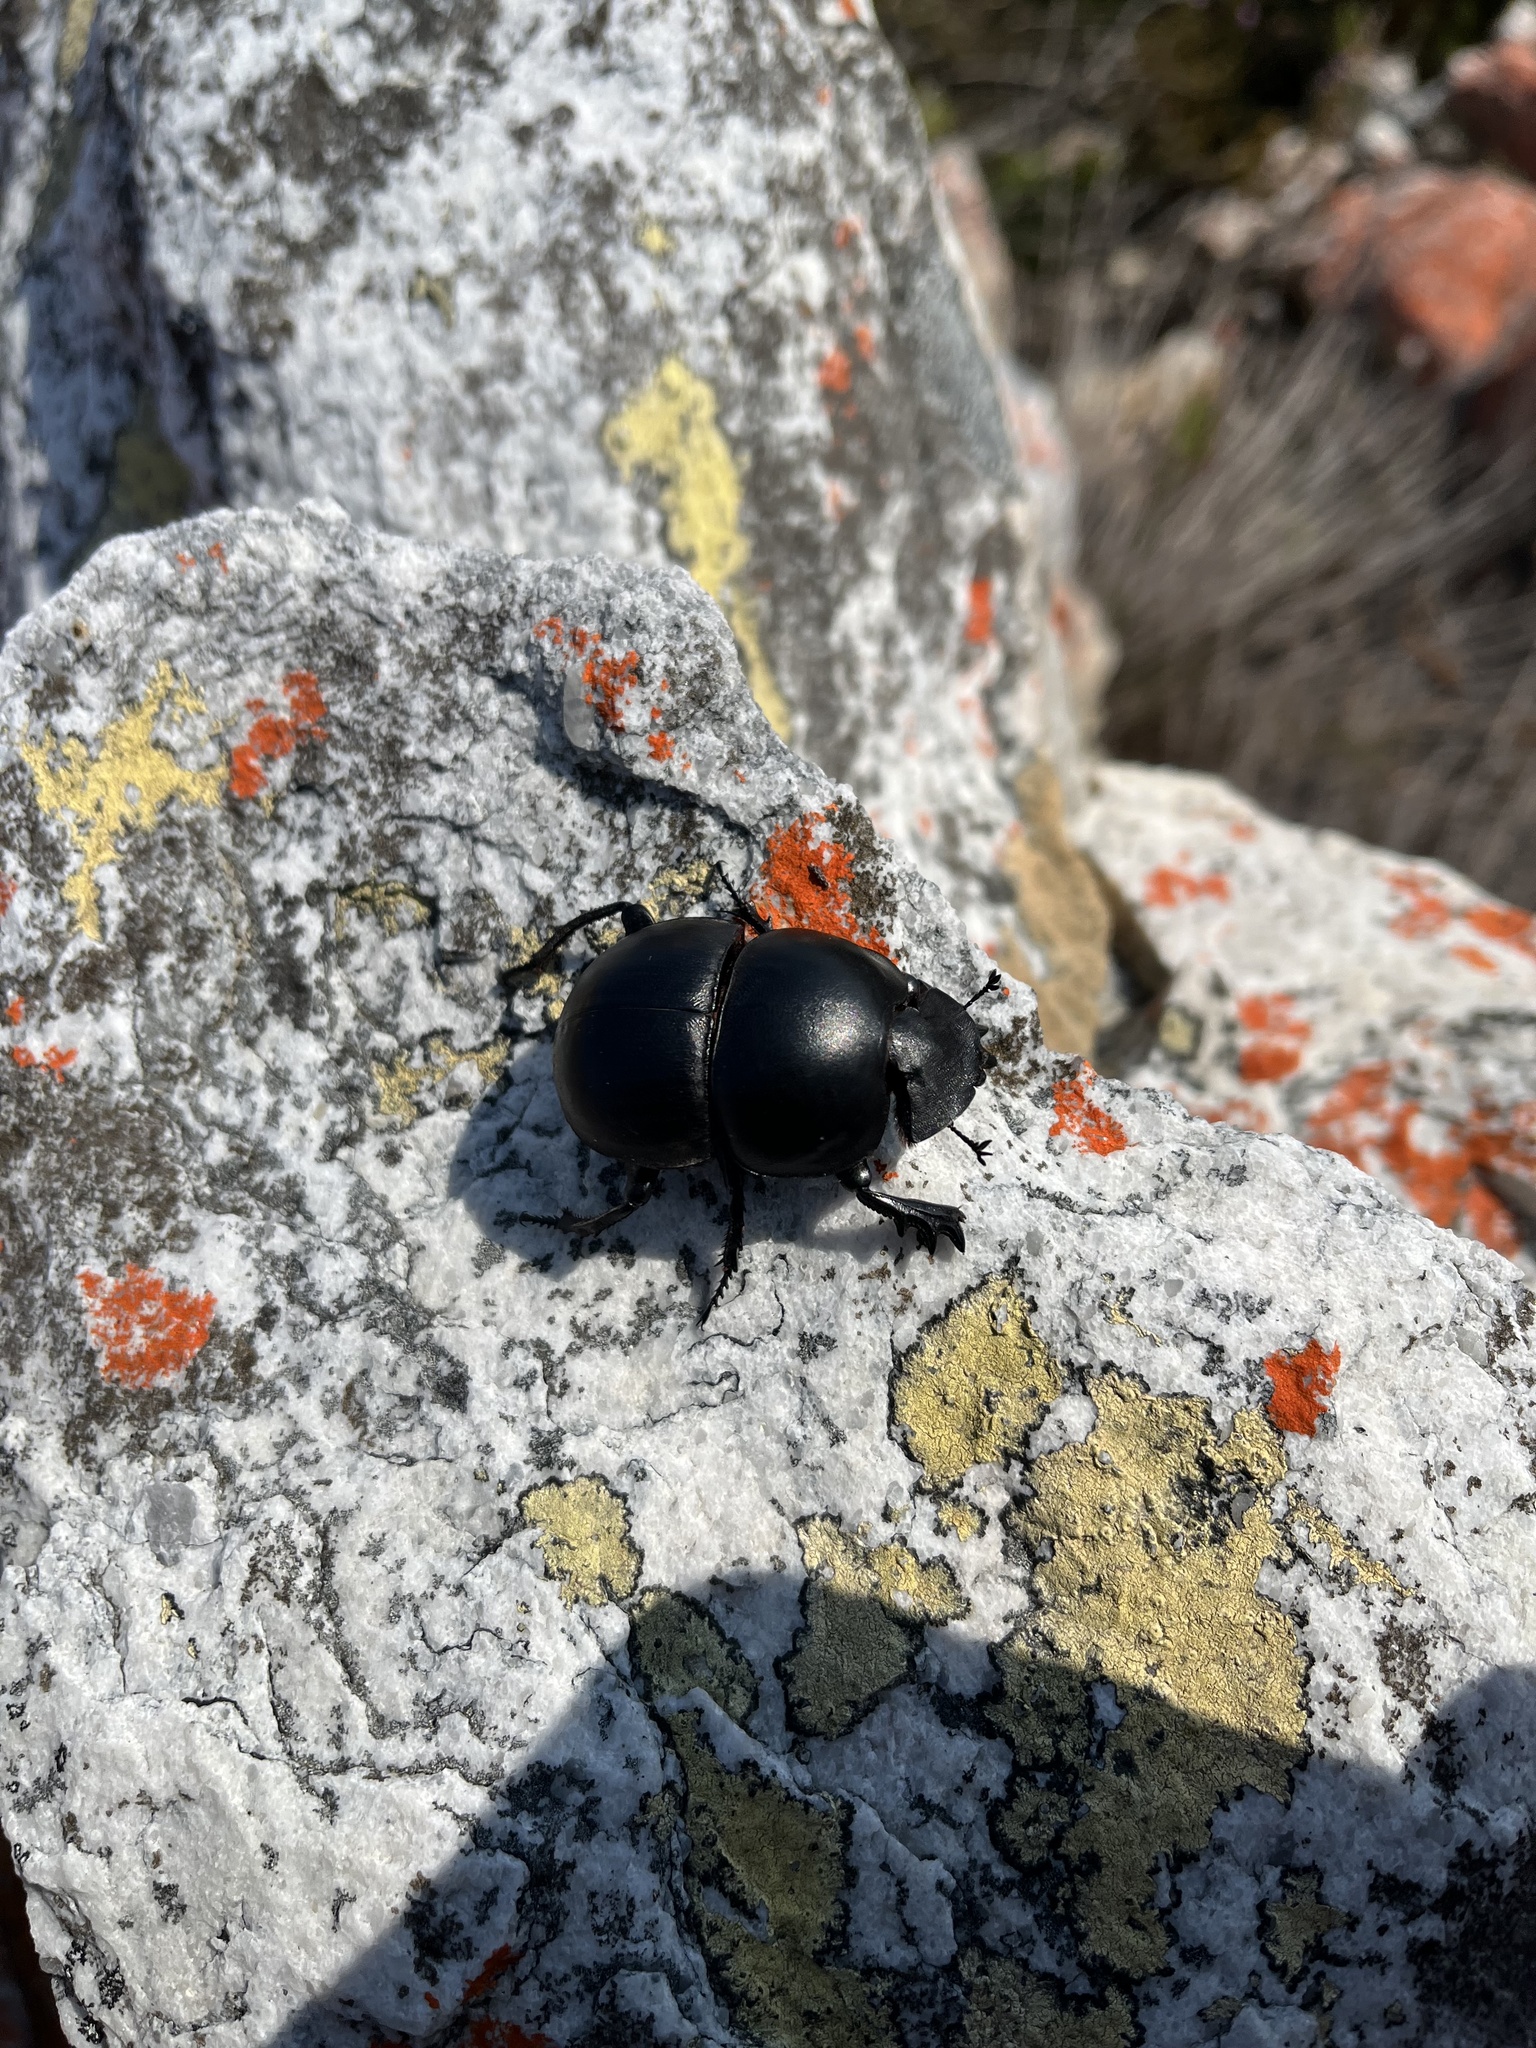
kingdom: Animalia
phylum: Arthropoda
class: Insecta
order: Coleoptera
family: Scarabaeidae
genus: Circellium
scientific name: Circellium bacchus
